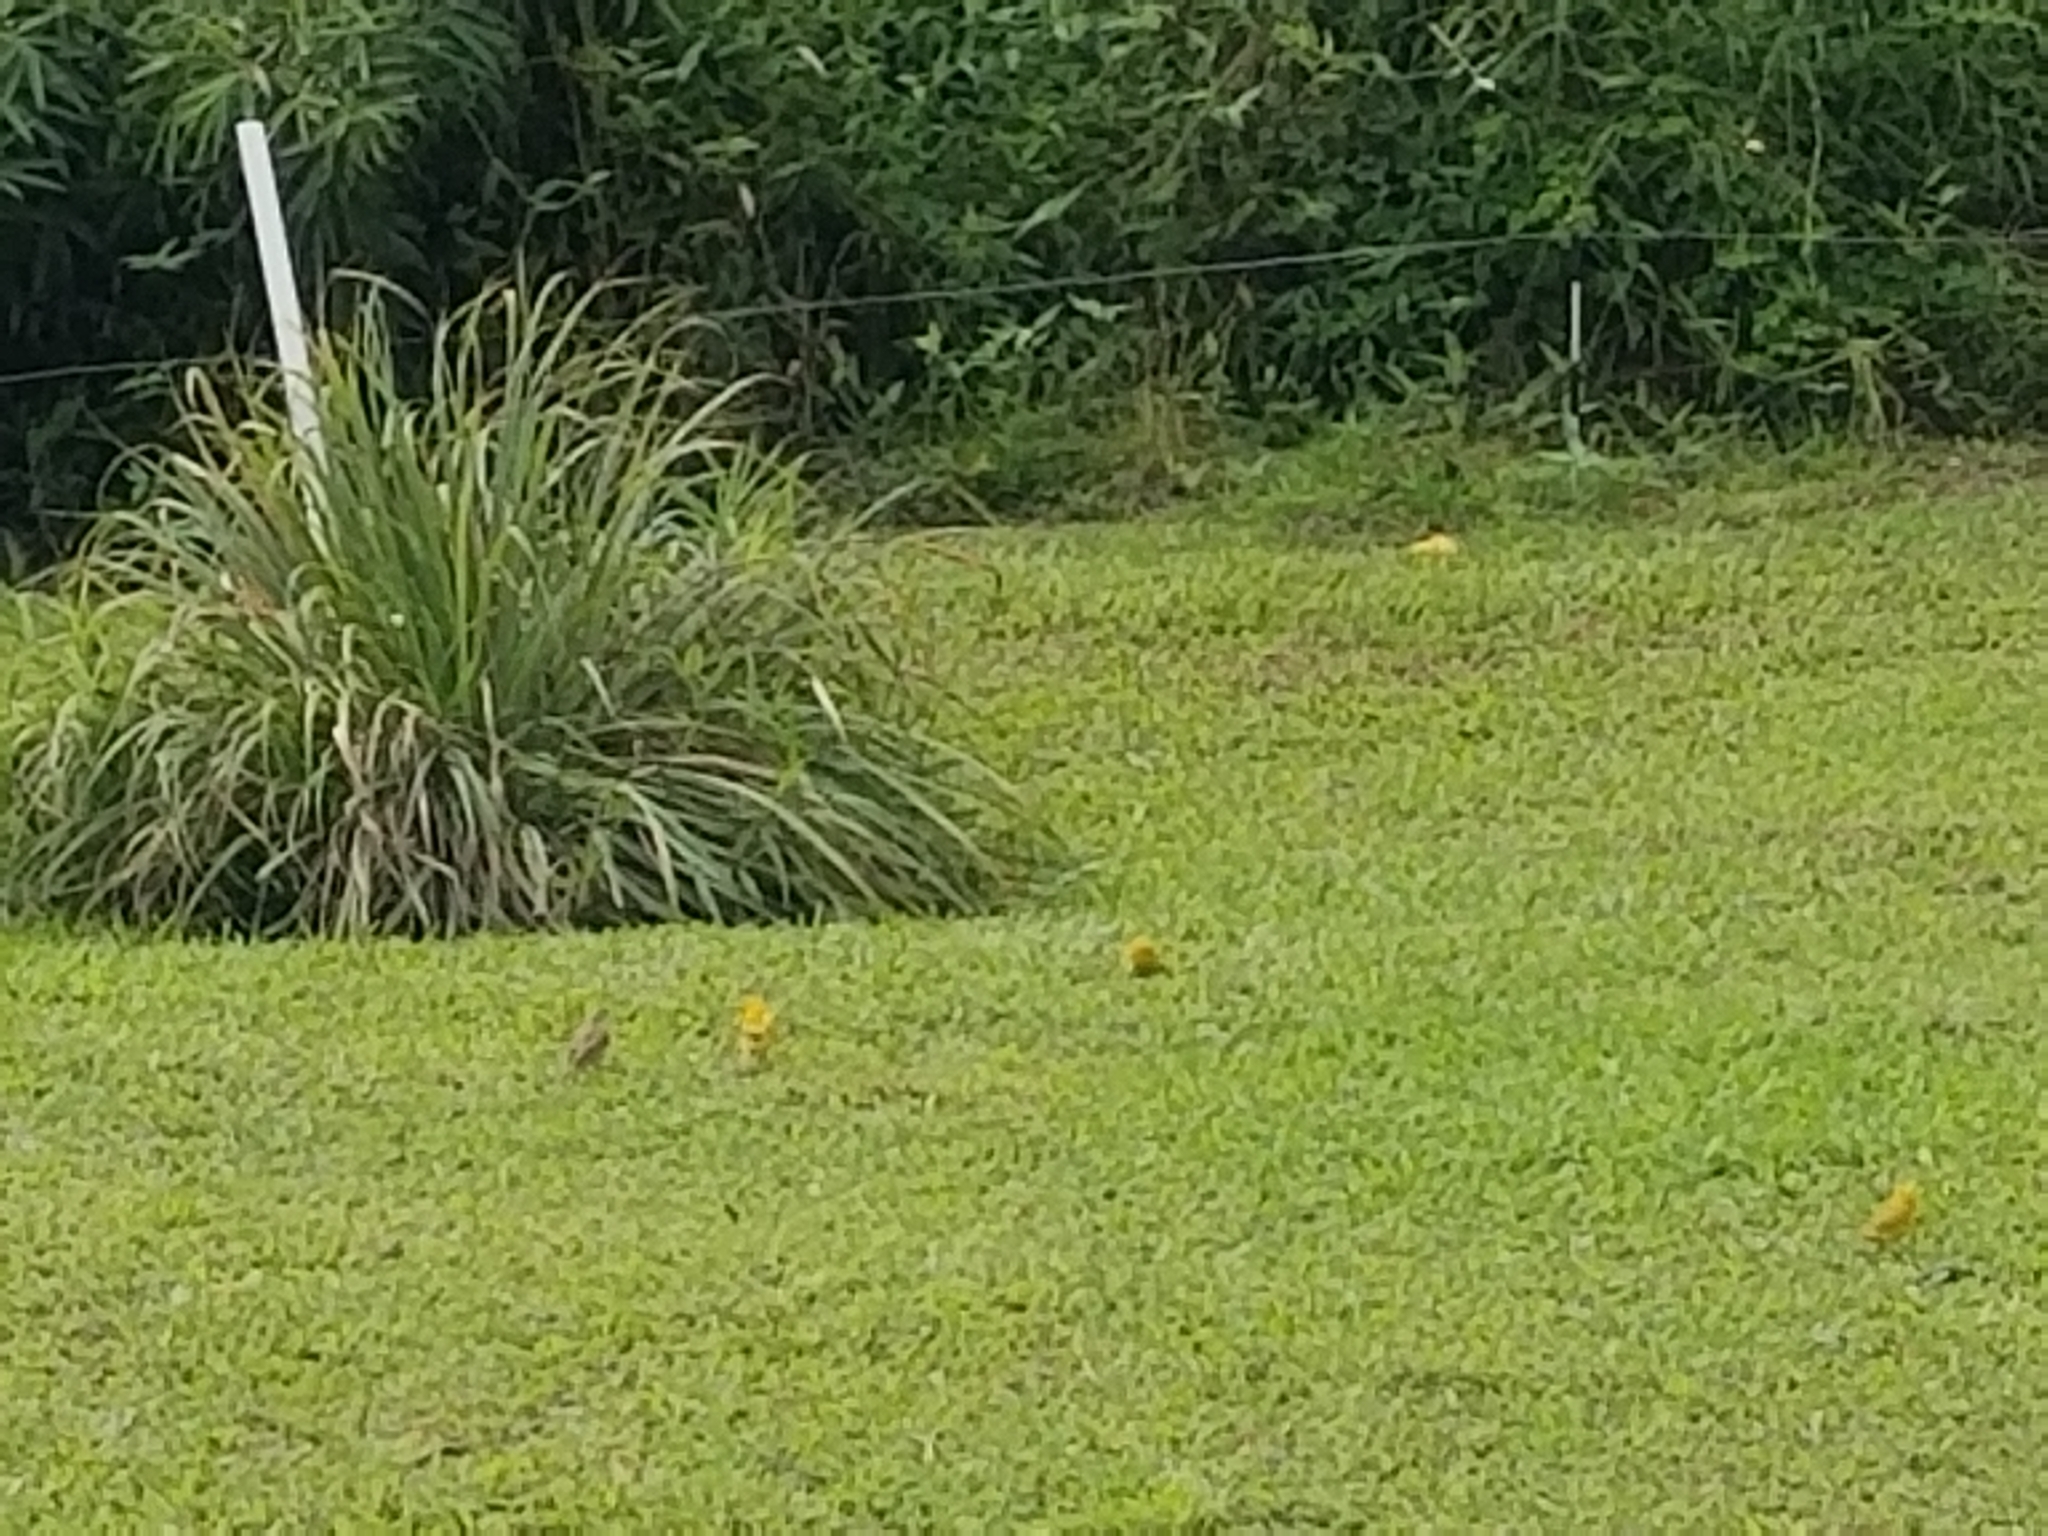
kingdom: Animalia
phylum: Chordata
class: Aves
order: Passeriformes
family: Thraupidae
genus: Sicalis
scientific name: Sicalis flaveola
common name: Saffron finch
